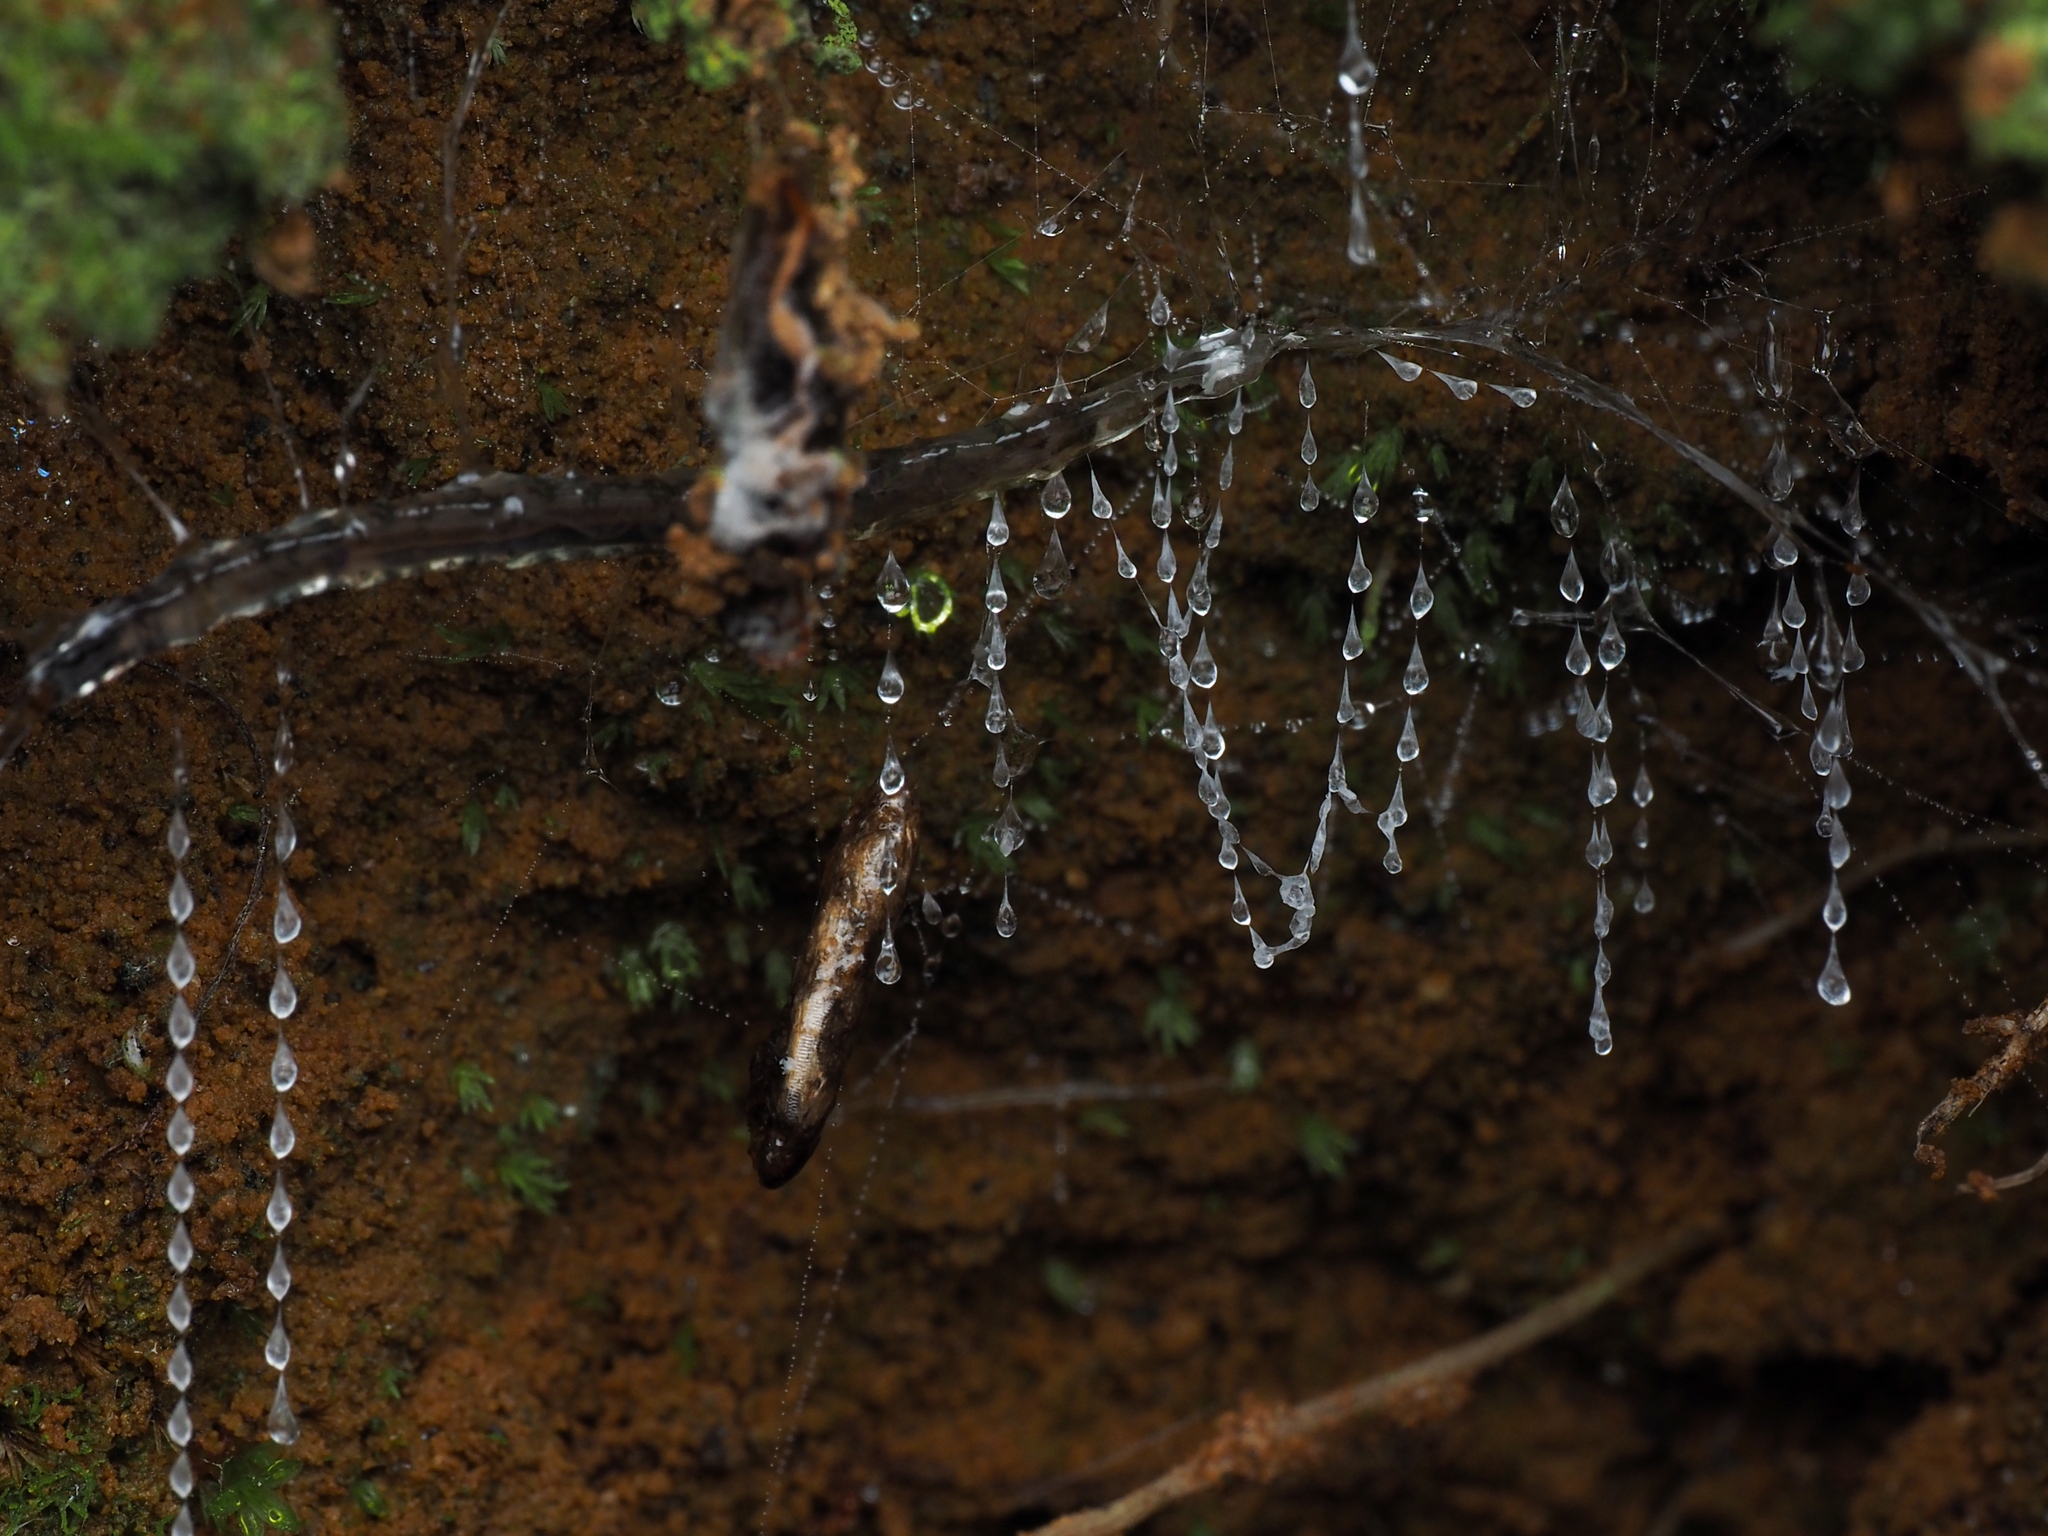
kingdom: Animalia
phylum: Arthropoda
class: Insecta
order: Diptera
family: Keroplatidae
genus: Arachnocampa
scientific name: Arachnocampa luminosa
